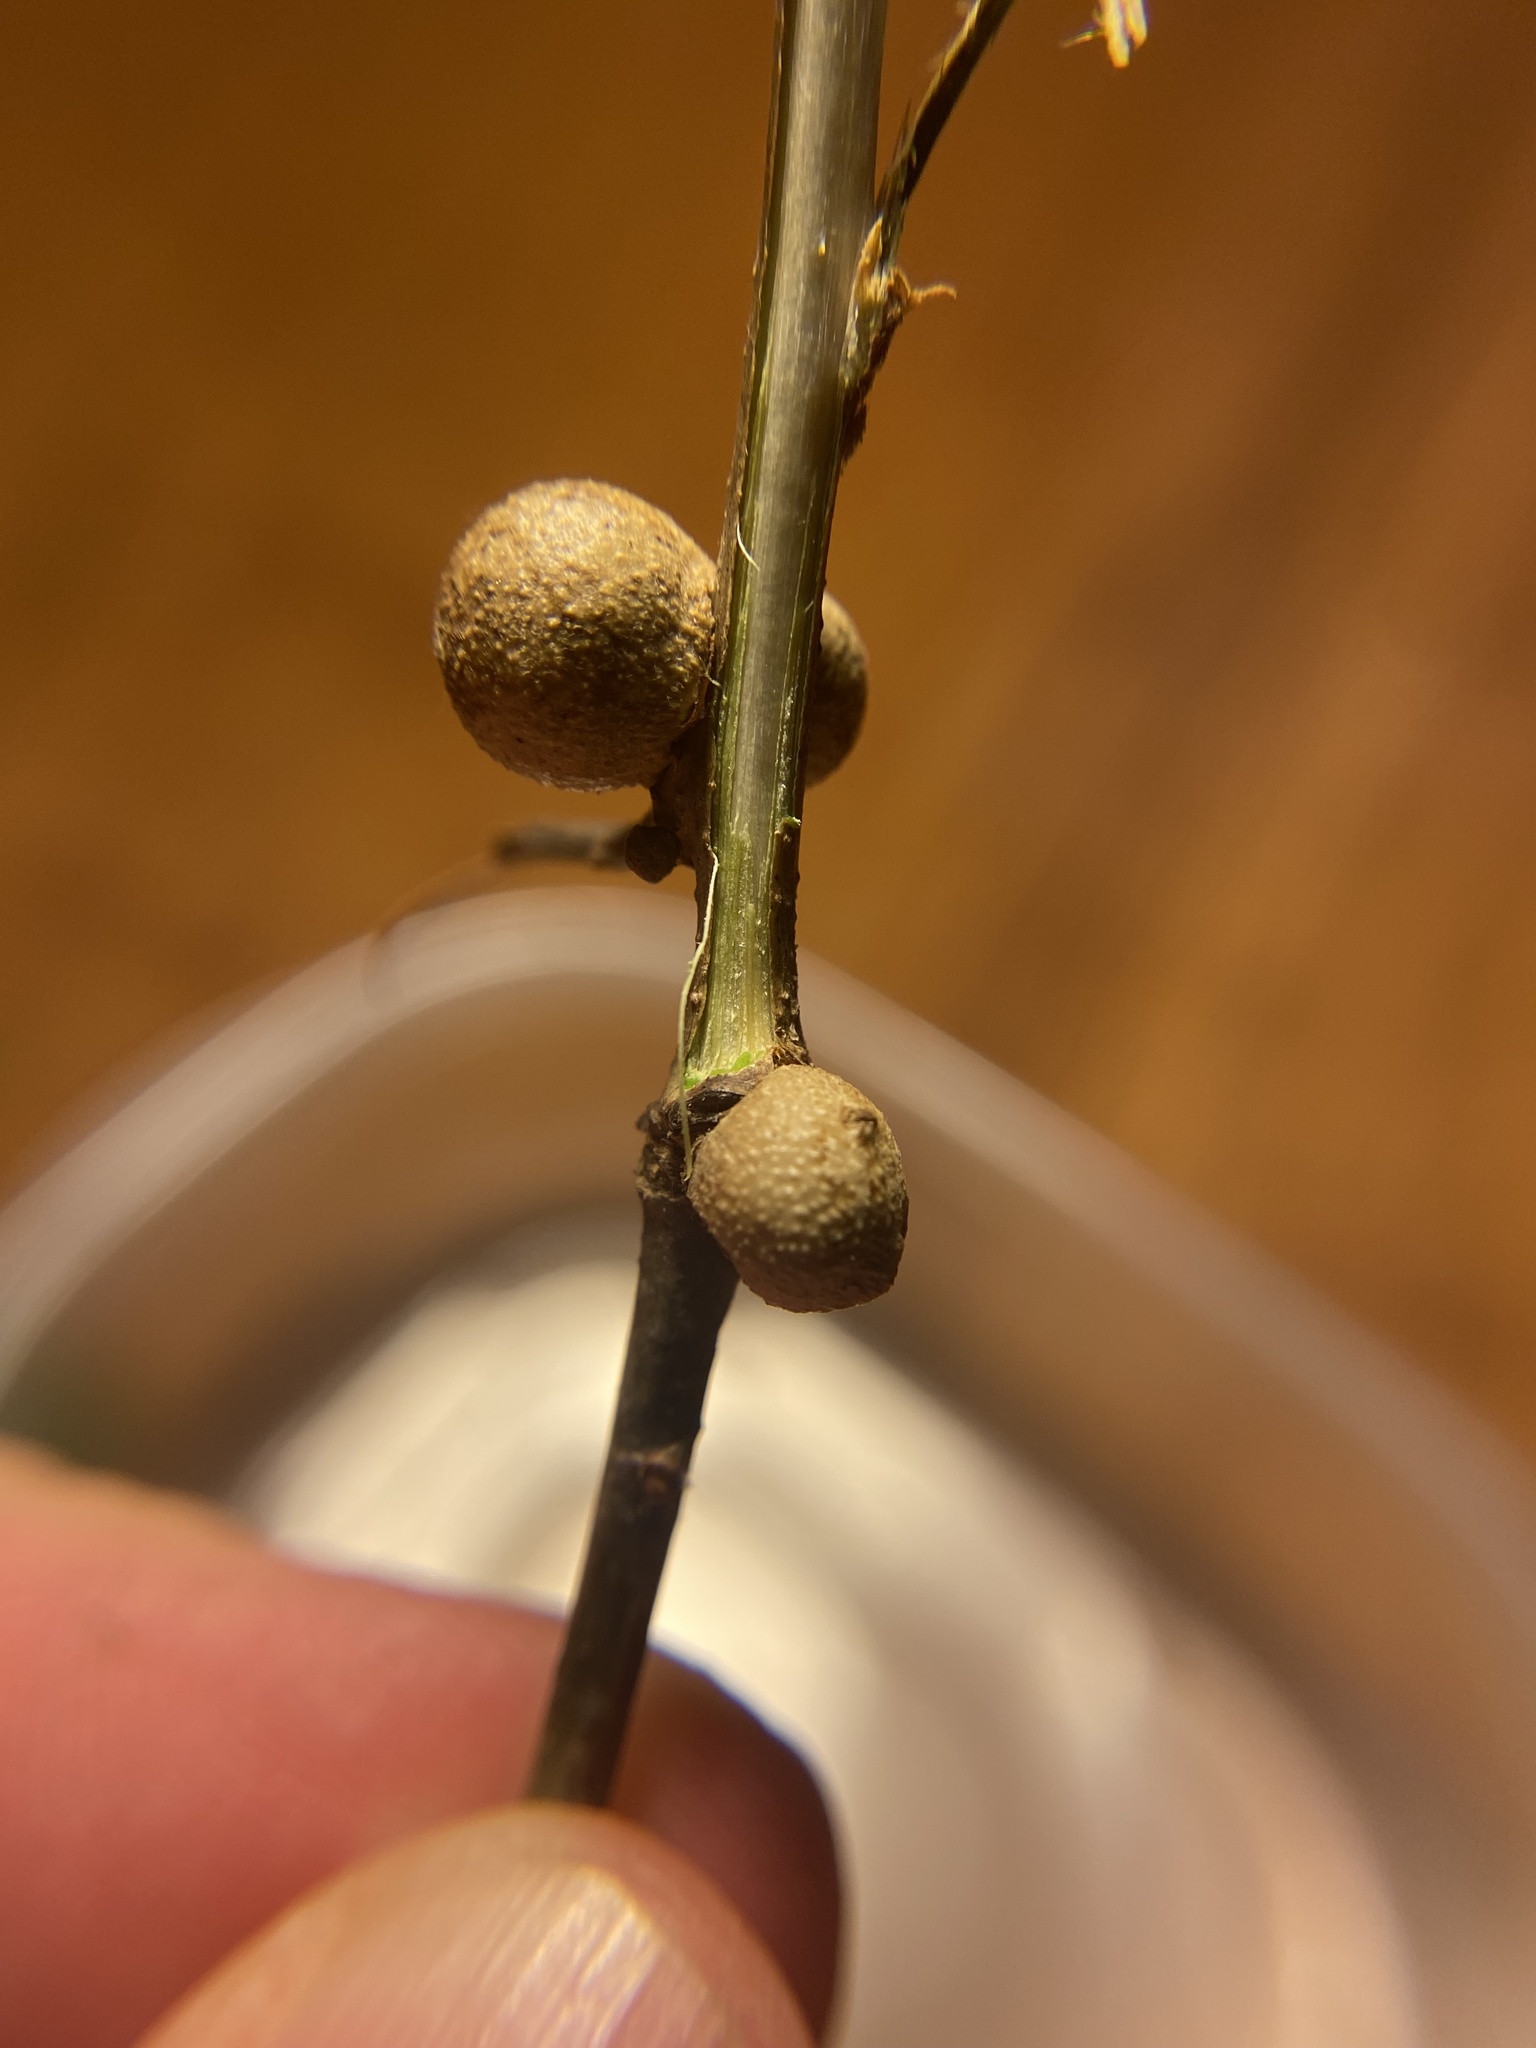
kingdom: Animalia
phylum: Arthropoda
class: Insecta
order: Hymenoptera
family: Cynipidae
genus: Disholcaspis
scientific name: Disholcaspis quercusglobulus
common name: Round bullet gall wasp
